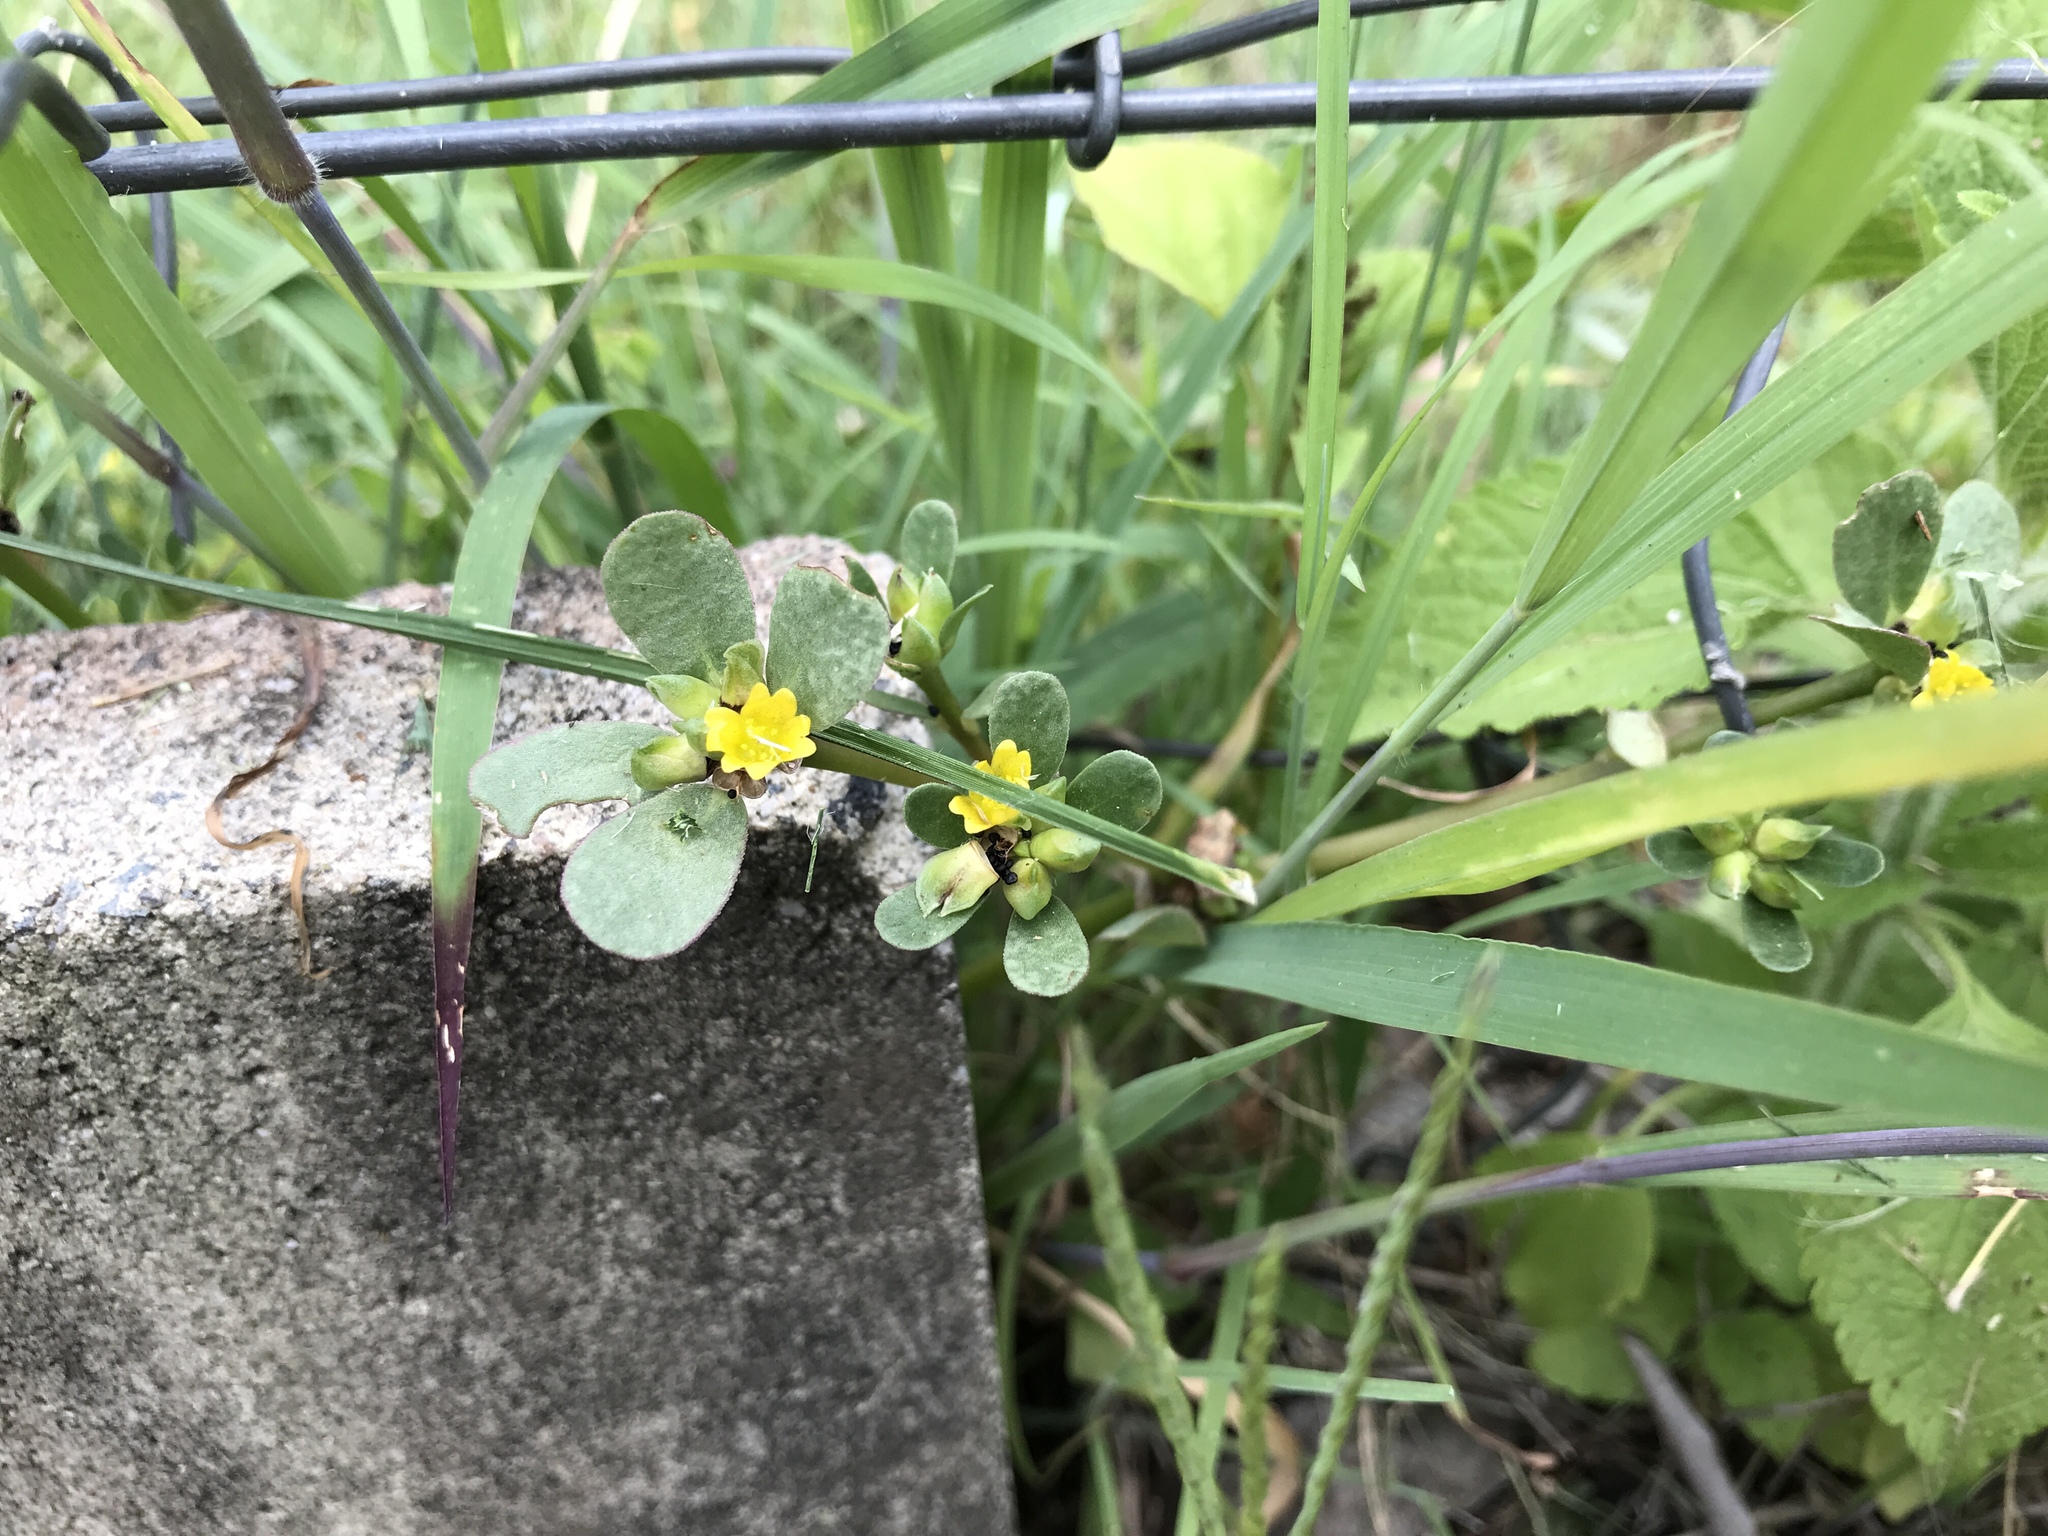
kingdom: Plantae
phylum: Tracheophyta
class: Magnoliopsida
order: Caryophyllales
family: Portulacaceae
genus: Portulaca
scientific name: Portulaca oleracea
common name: Common purslane
